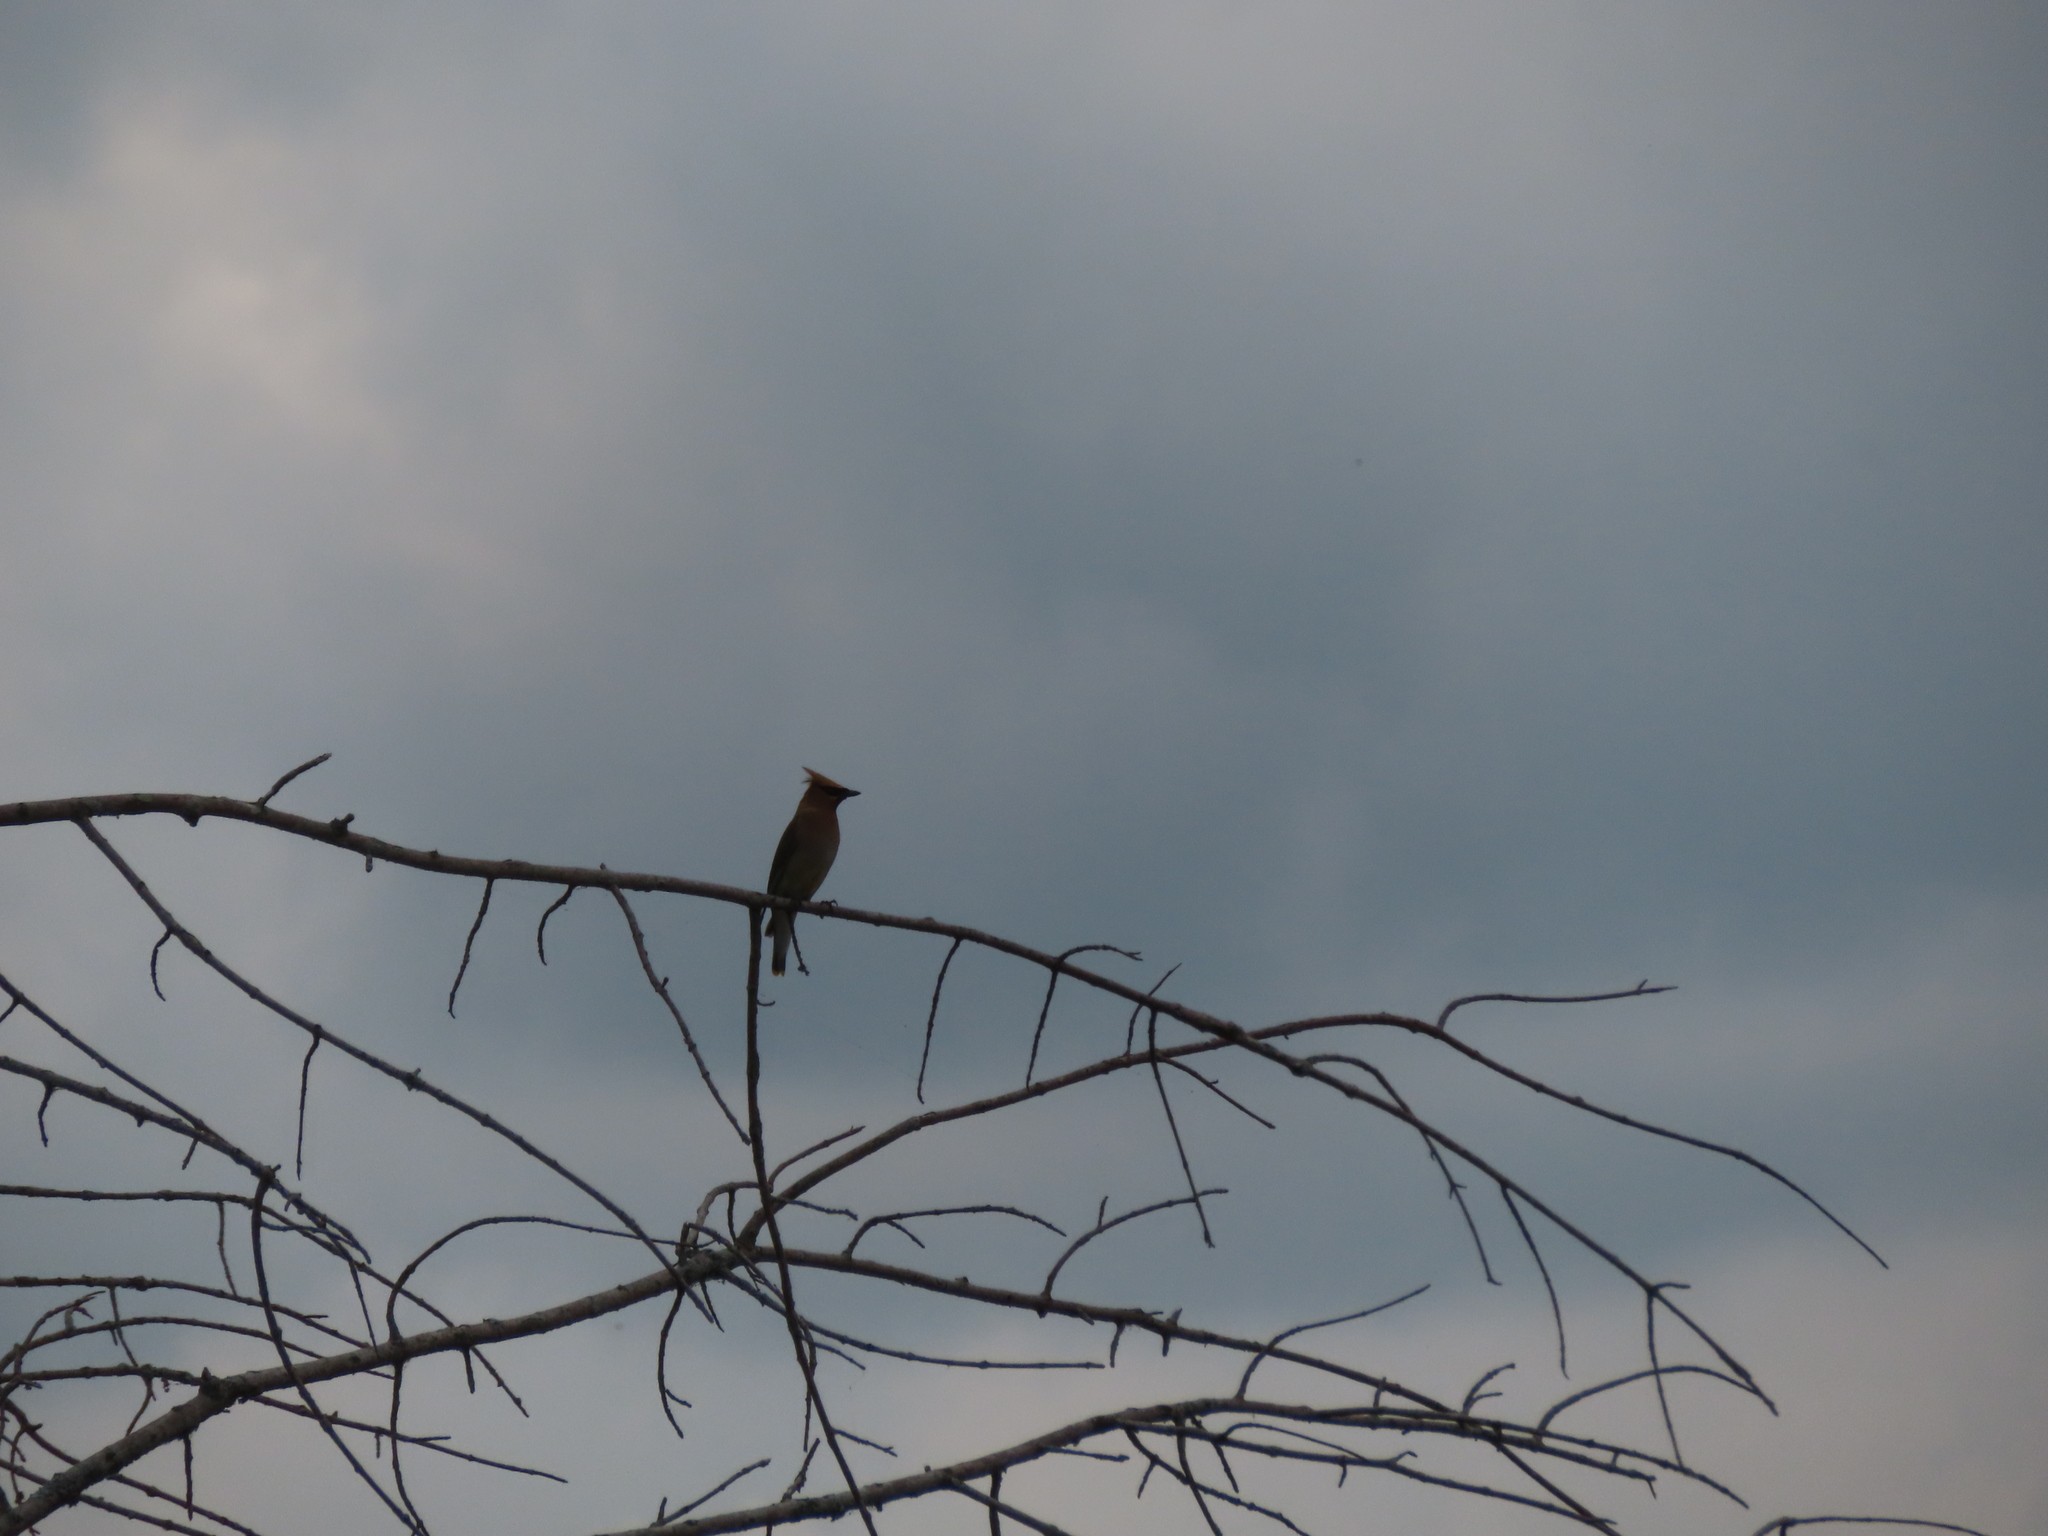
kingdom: Animalia
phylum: Chordata
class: Aves
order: Passeriformes
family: Bombycillidae
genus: Bombycilla
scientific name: Bombycilla cedrorum
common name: Cedar waxwing
